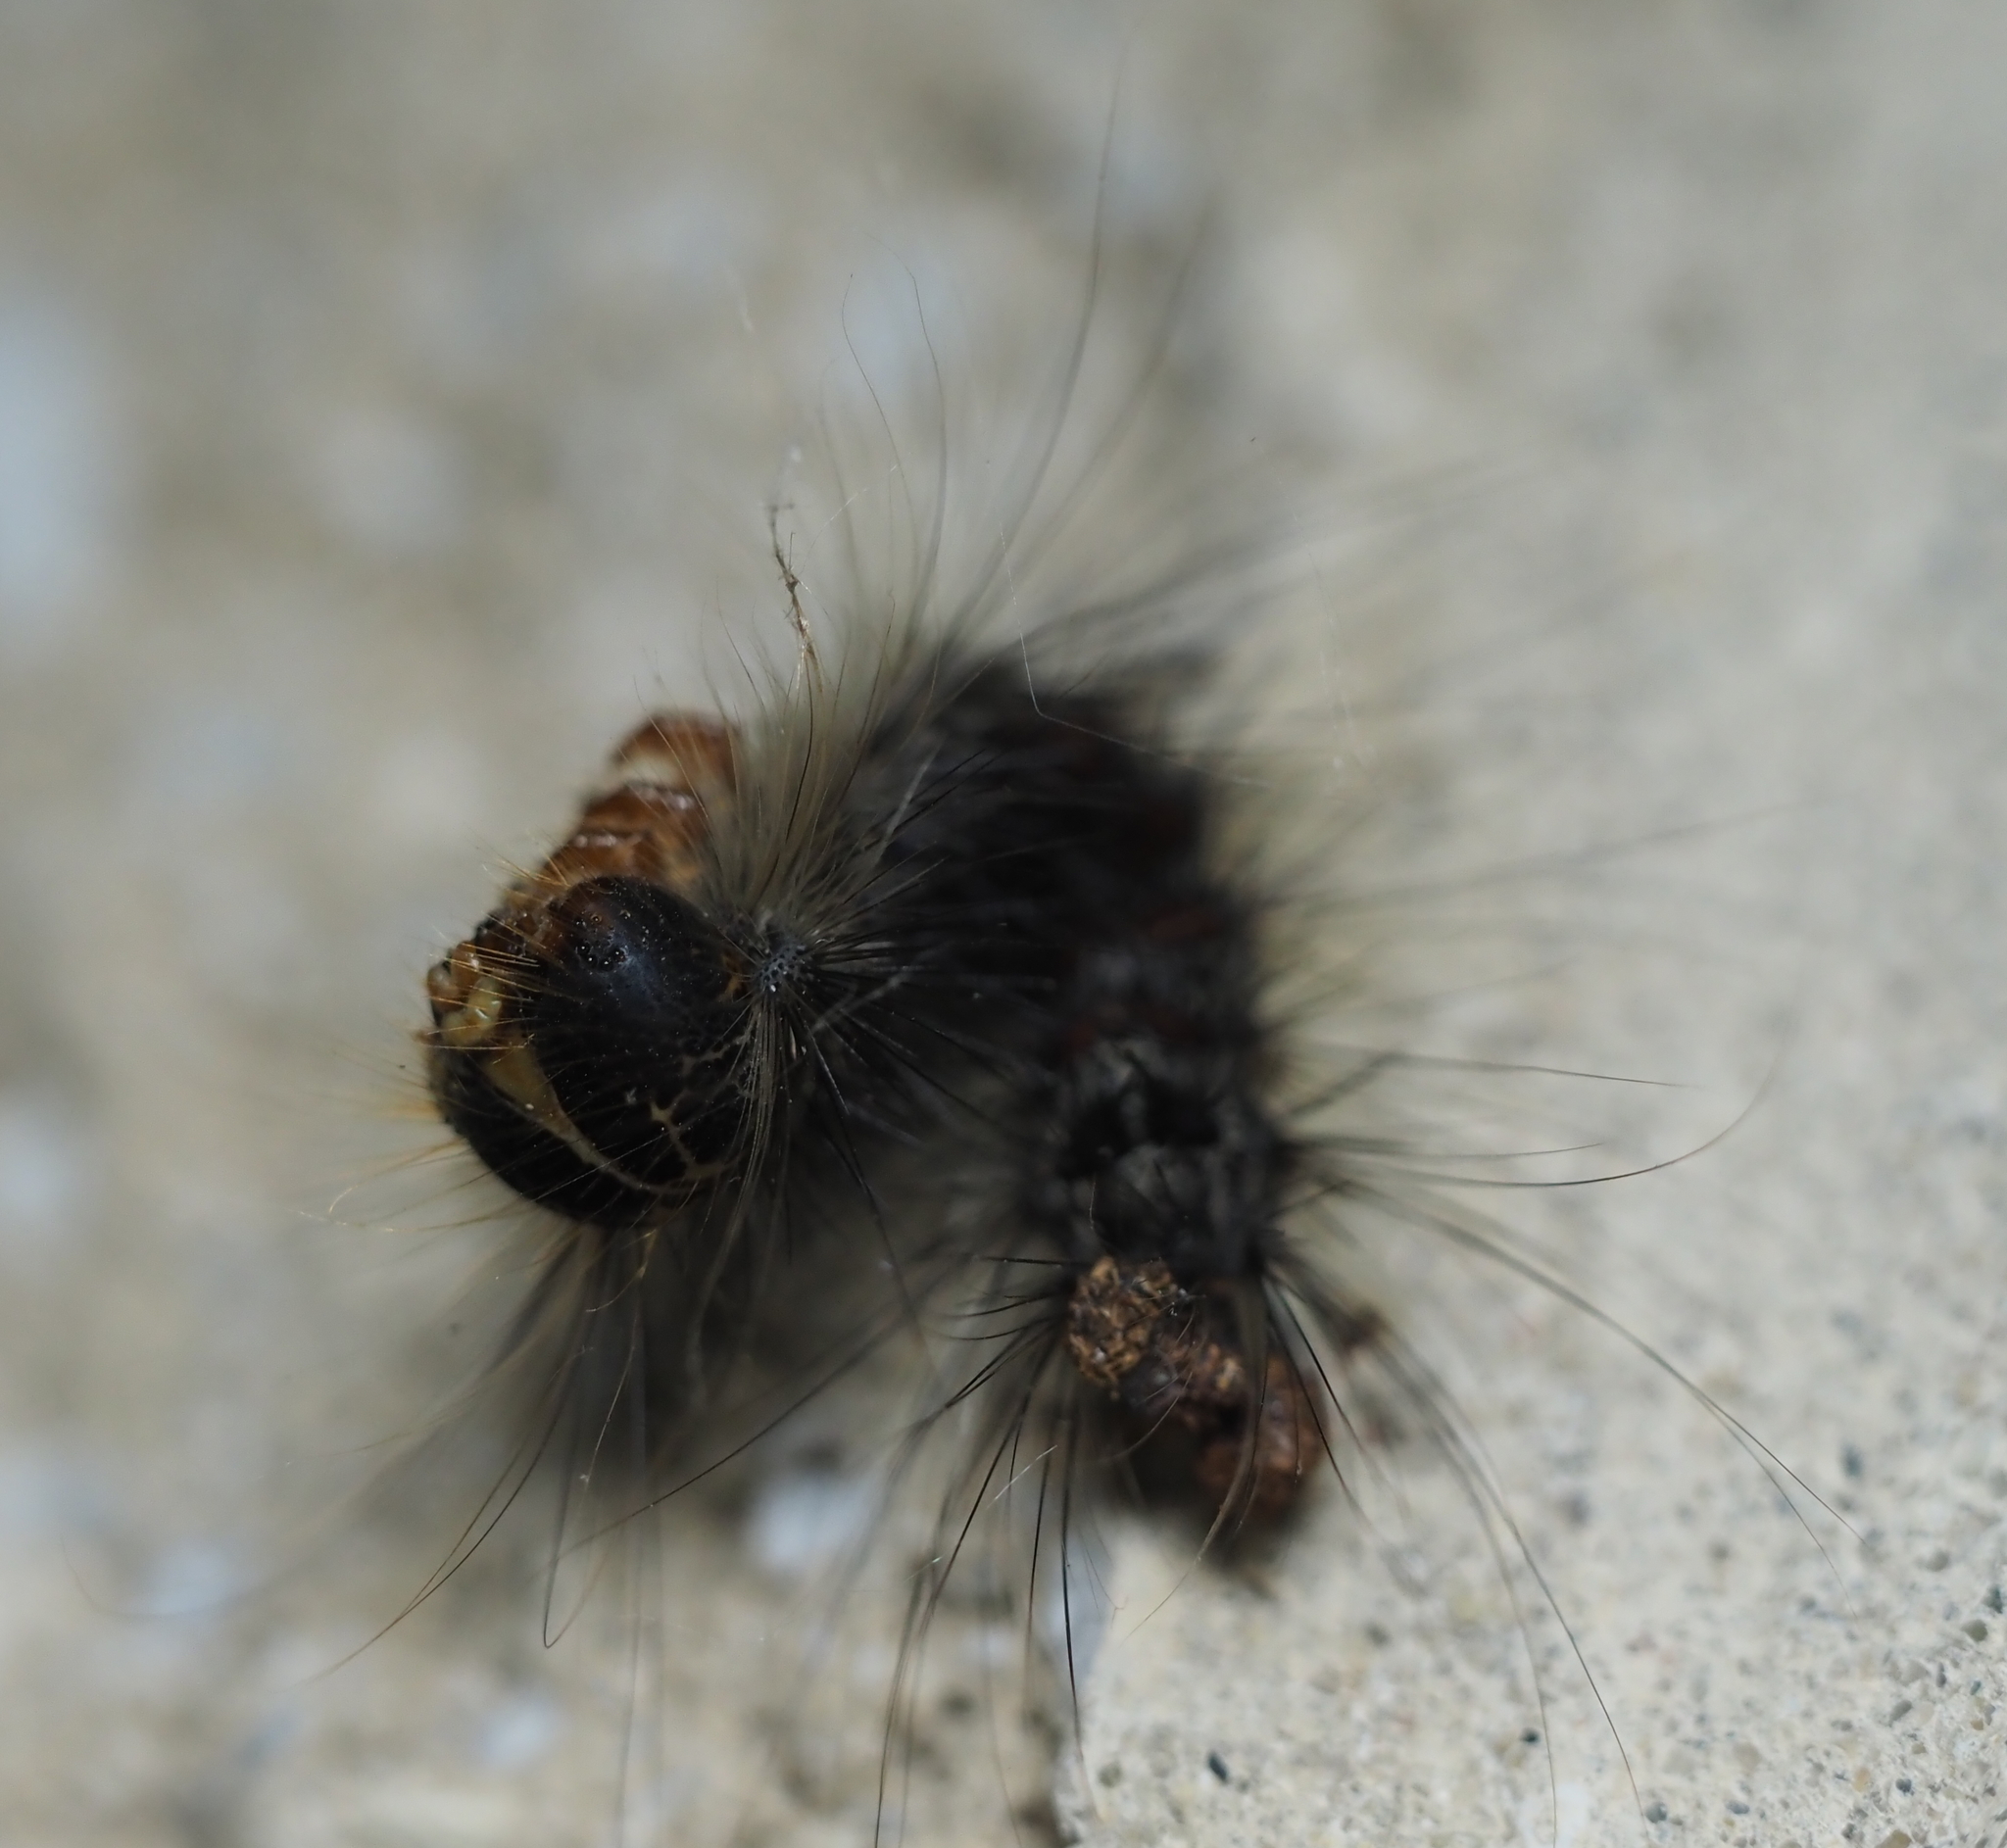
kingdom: Animalia
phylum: Arthropoda
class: Insecta
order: Lepidoptera
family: Erebidae
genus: Lymantria
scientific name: Lymantria dispar
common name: Gypsy moth
